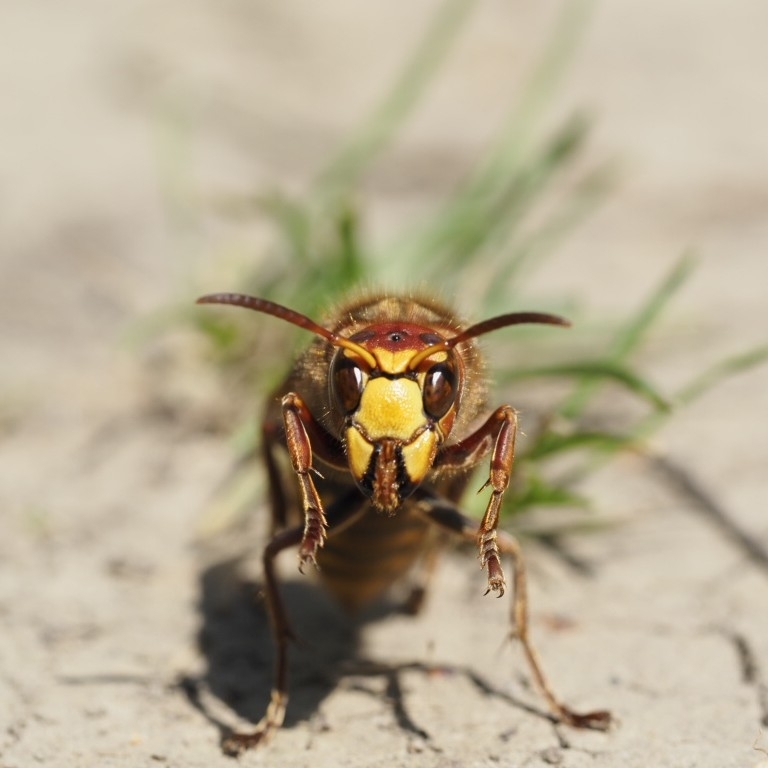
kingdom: Animalia
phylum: Arthropoda
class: Insecta
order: Hymenoptera
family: Vespidae
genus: Vespa
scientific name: Vespa crabro
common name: Hornet
